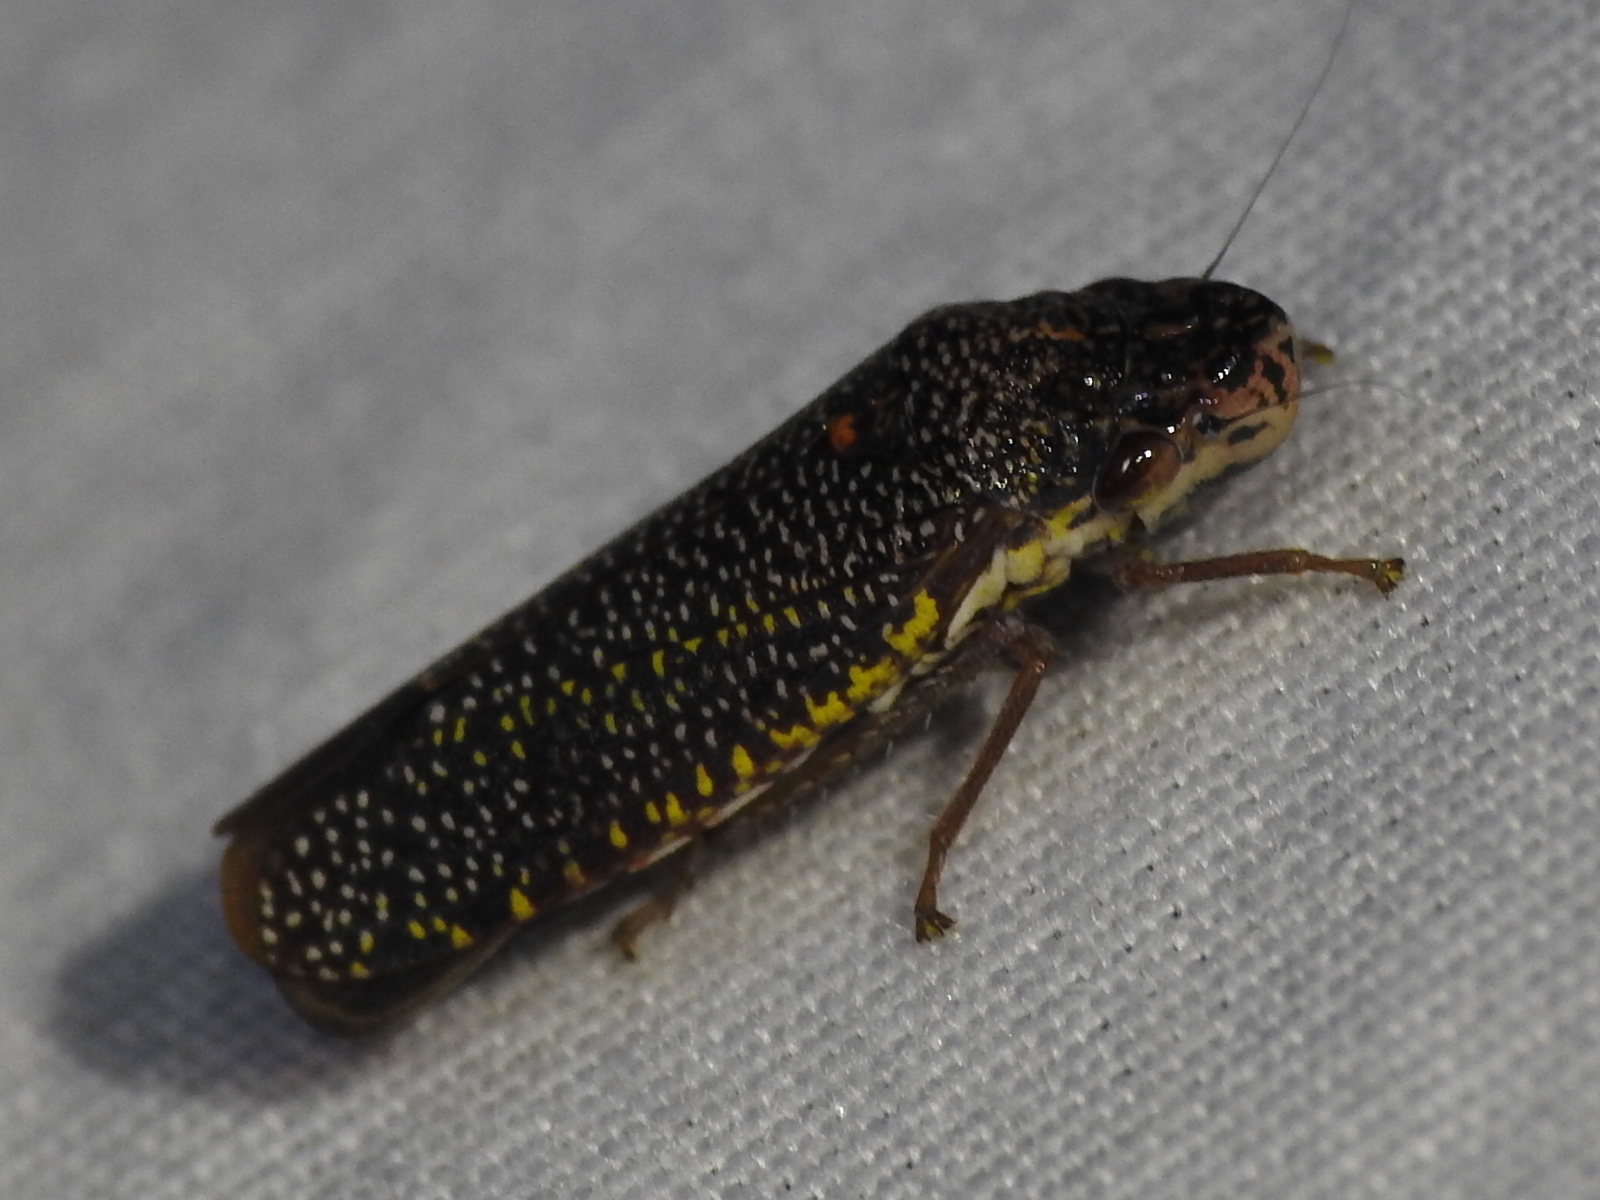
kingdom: Animalia
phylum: Arthropoda
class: Insecta
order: Hemiptera
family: Cicadellidae
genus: Paraulacizes
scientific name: Paraulacizes irrorata
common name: Speckled sharpshooter
